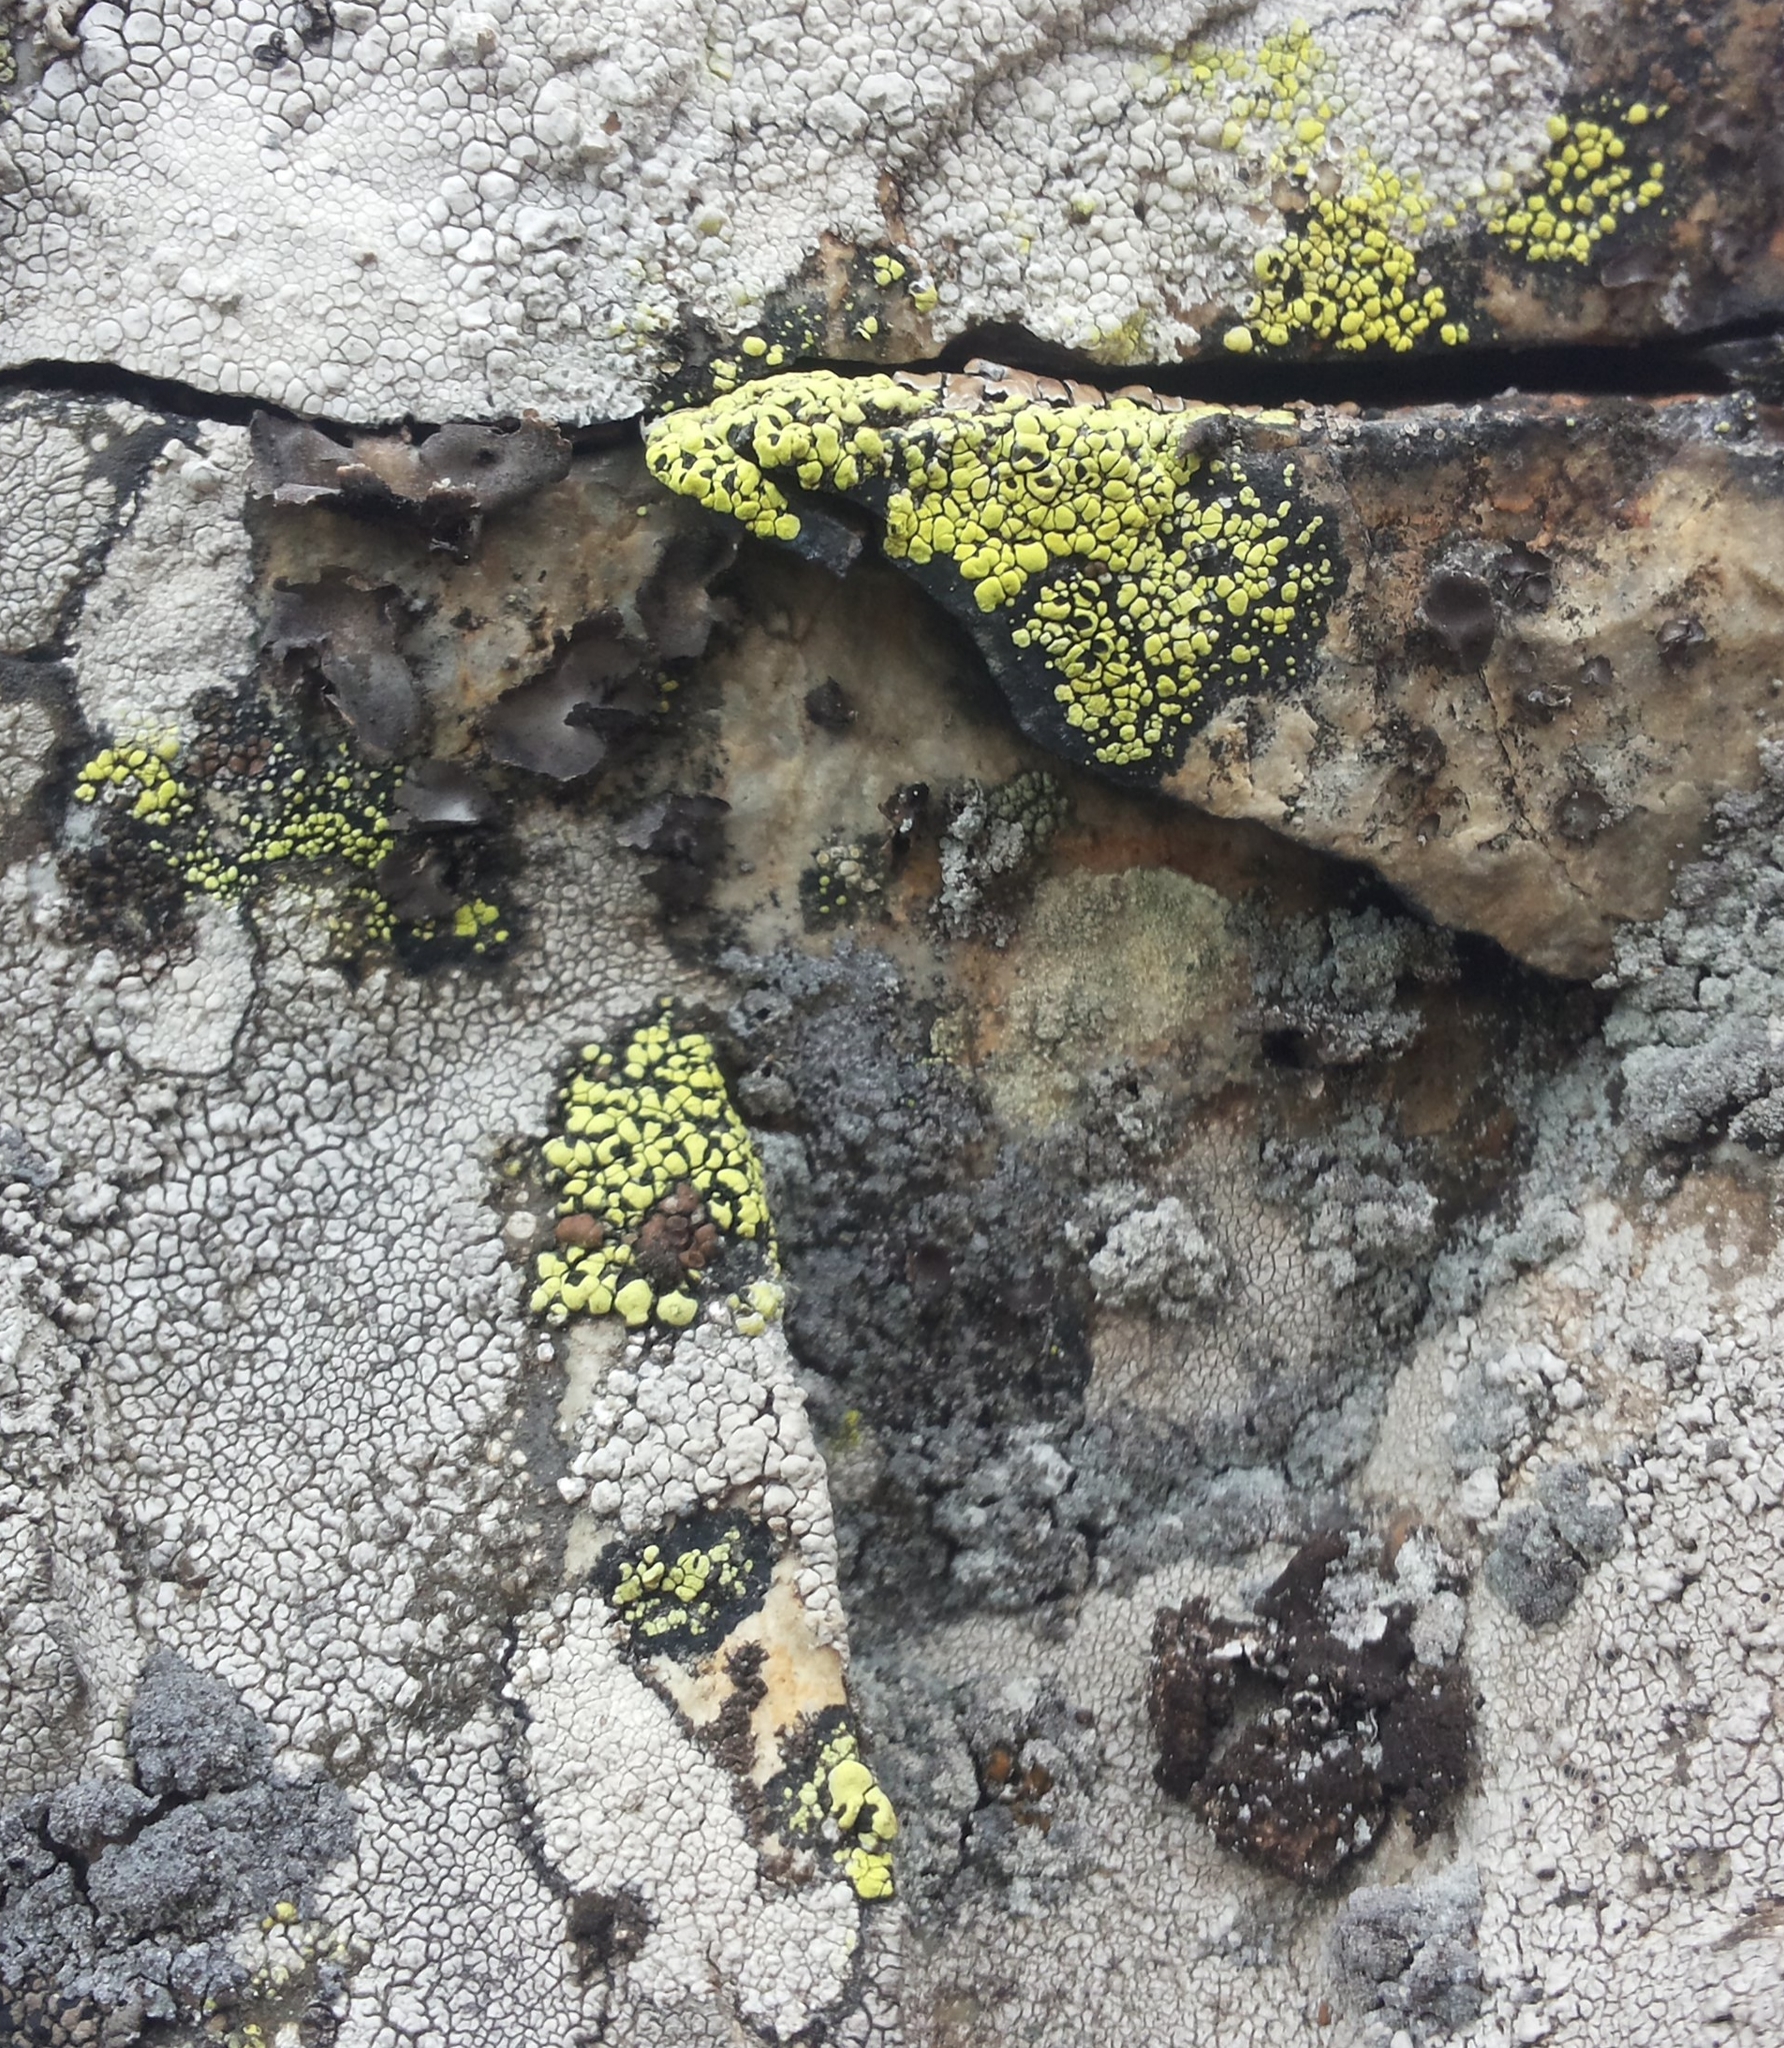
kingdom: Fungi
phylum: Ascomycota
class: Lecanoromycetes
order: Rhizocarpales
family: Rhizocarpaceae
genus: Rhizocarpon
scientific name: Rhizocarpon geographicum
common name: Yellow map lichen
